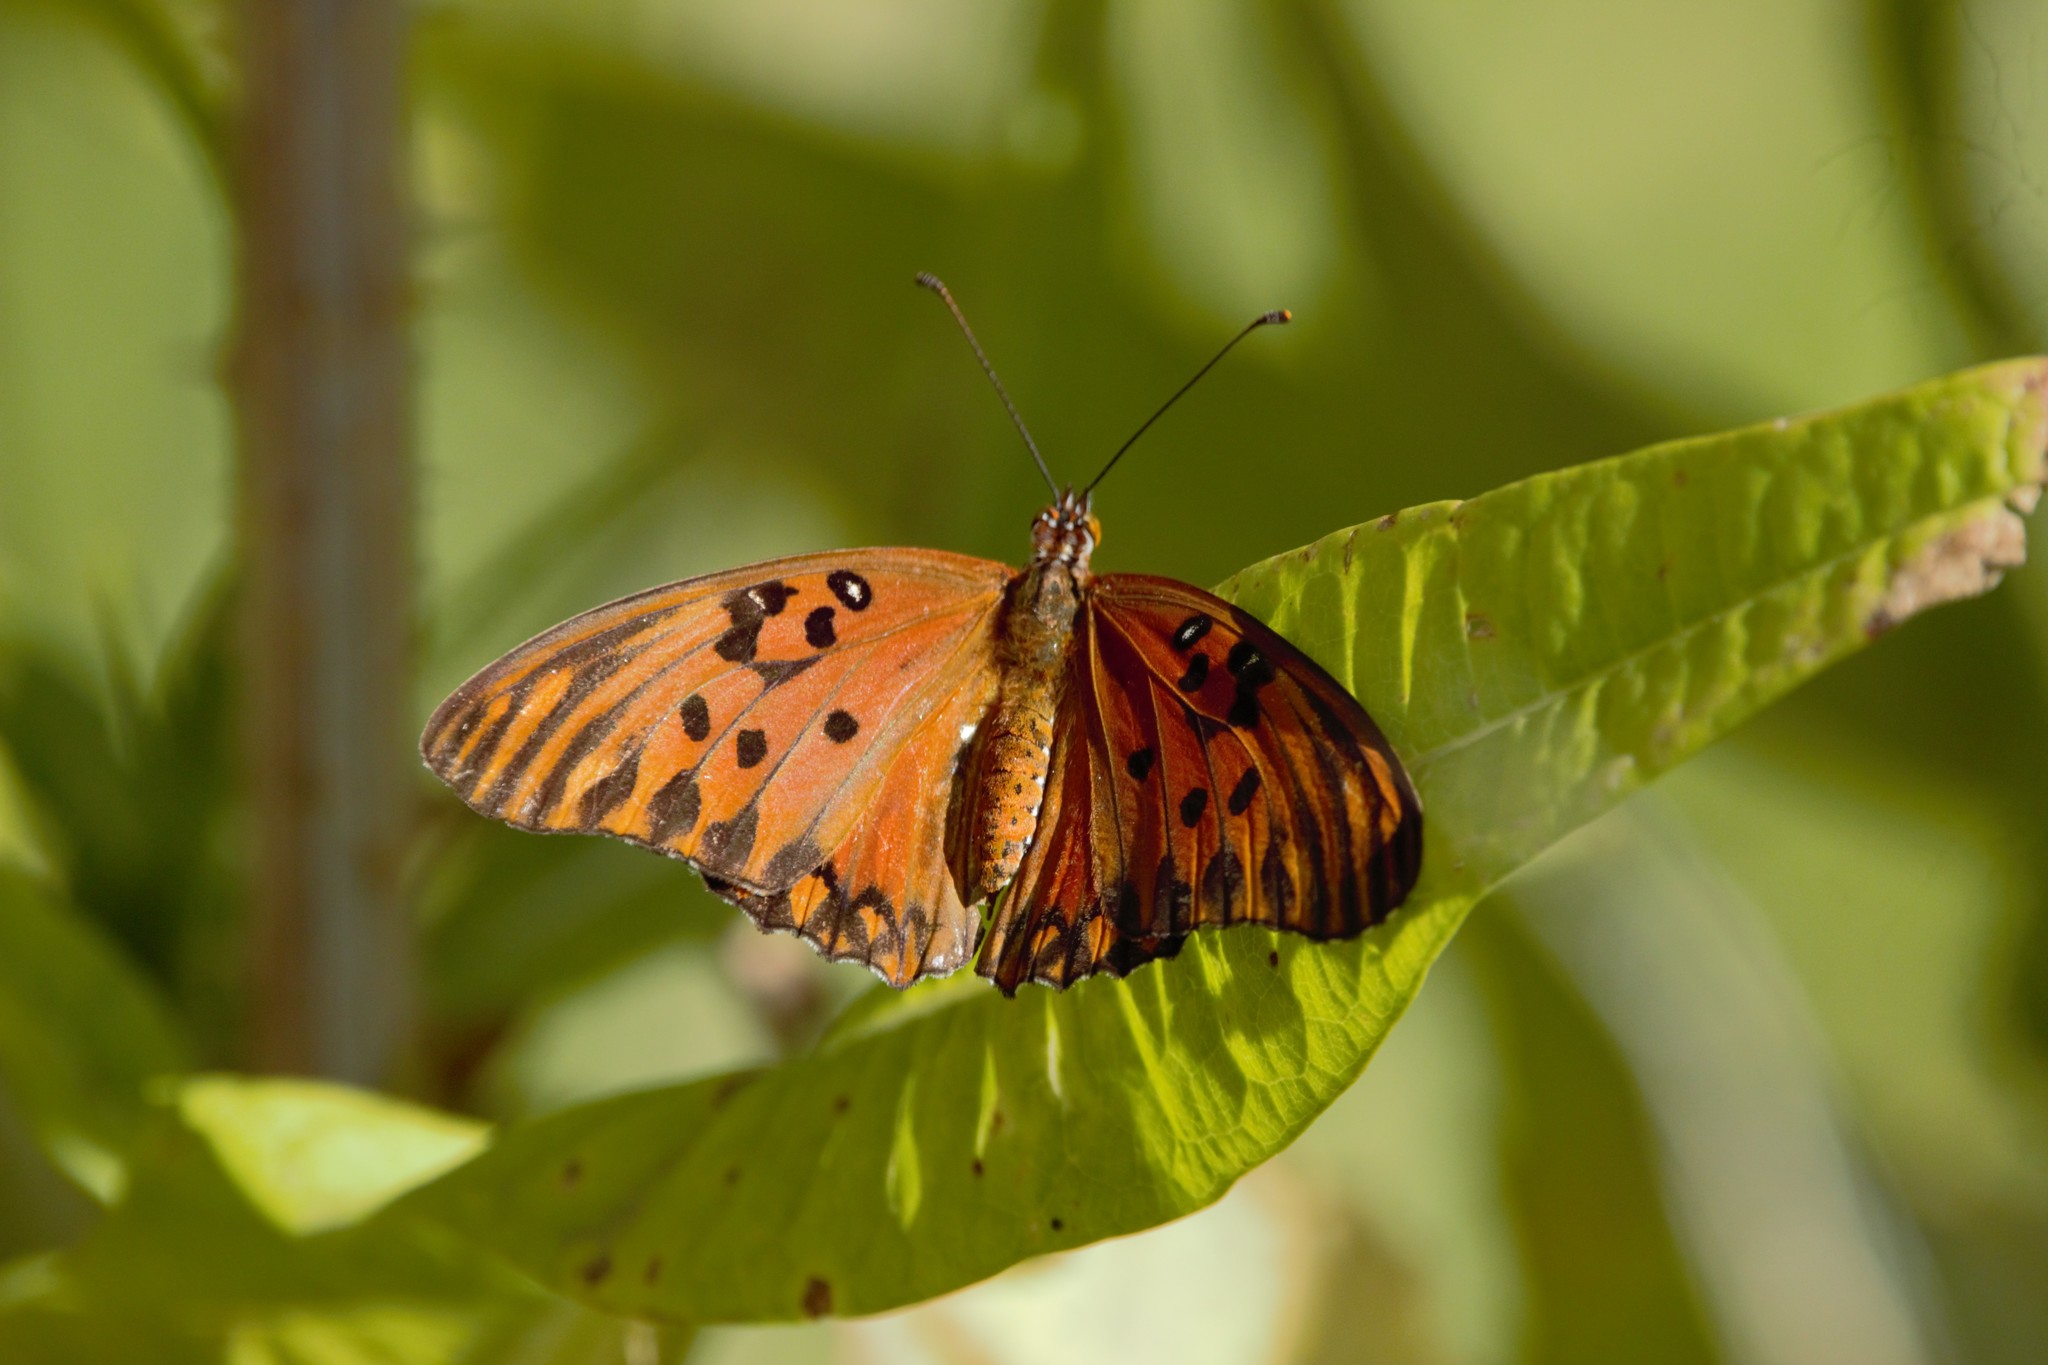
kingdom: Animalia
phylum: Arthropoda
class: Insecta
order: Lepidoptera
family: Nymphalidae
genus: Dione
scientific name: Dione vanillae
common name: Gulf fritillary
